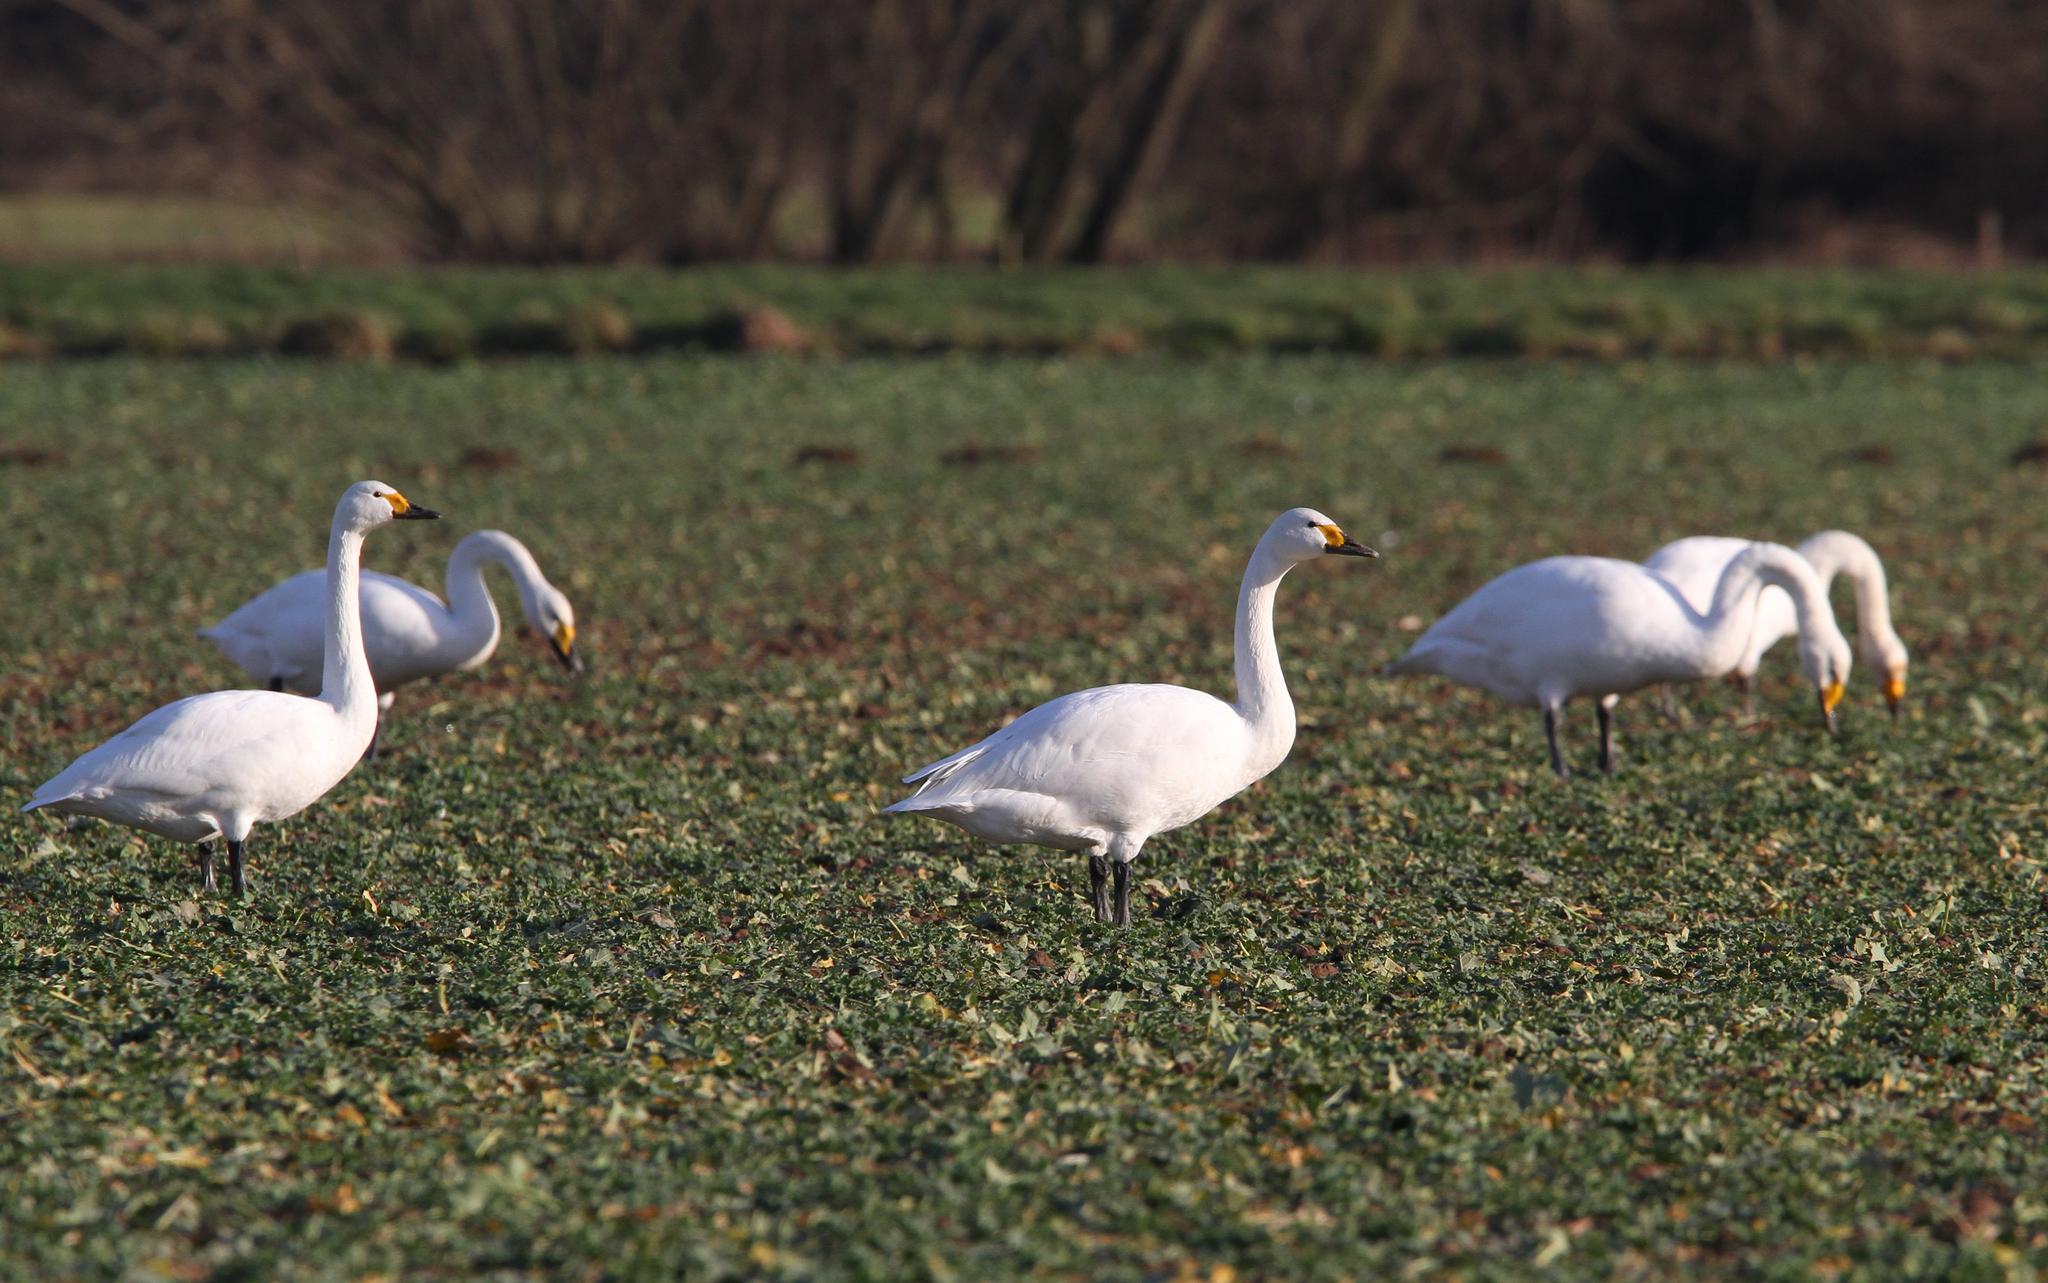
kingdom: Animalia
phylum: Chordata
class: Aves
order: Anseriformes
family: Anatidae
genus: Cygnus
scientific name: Cygnus columbianus
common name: Tundra swan
